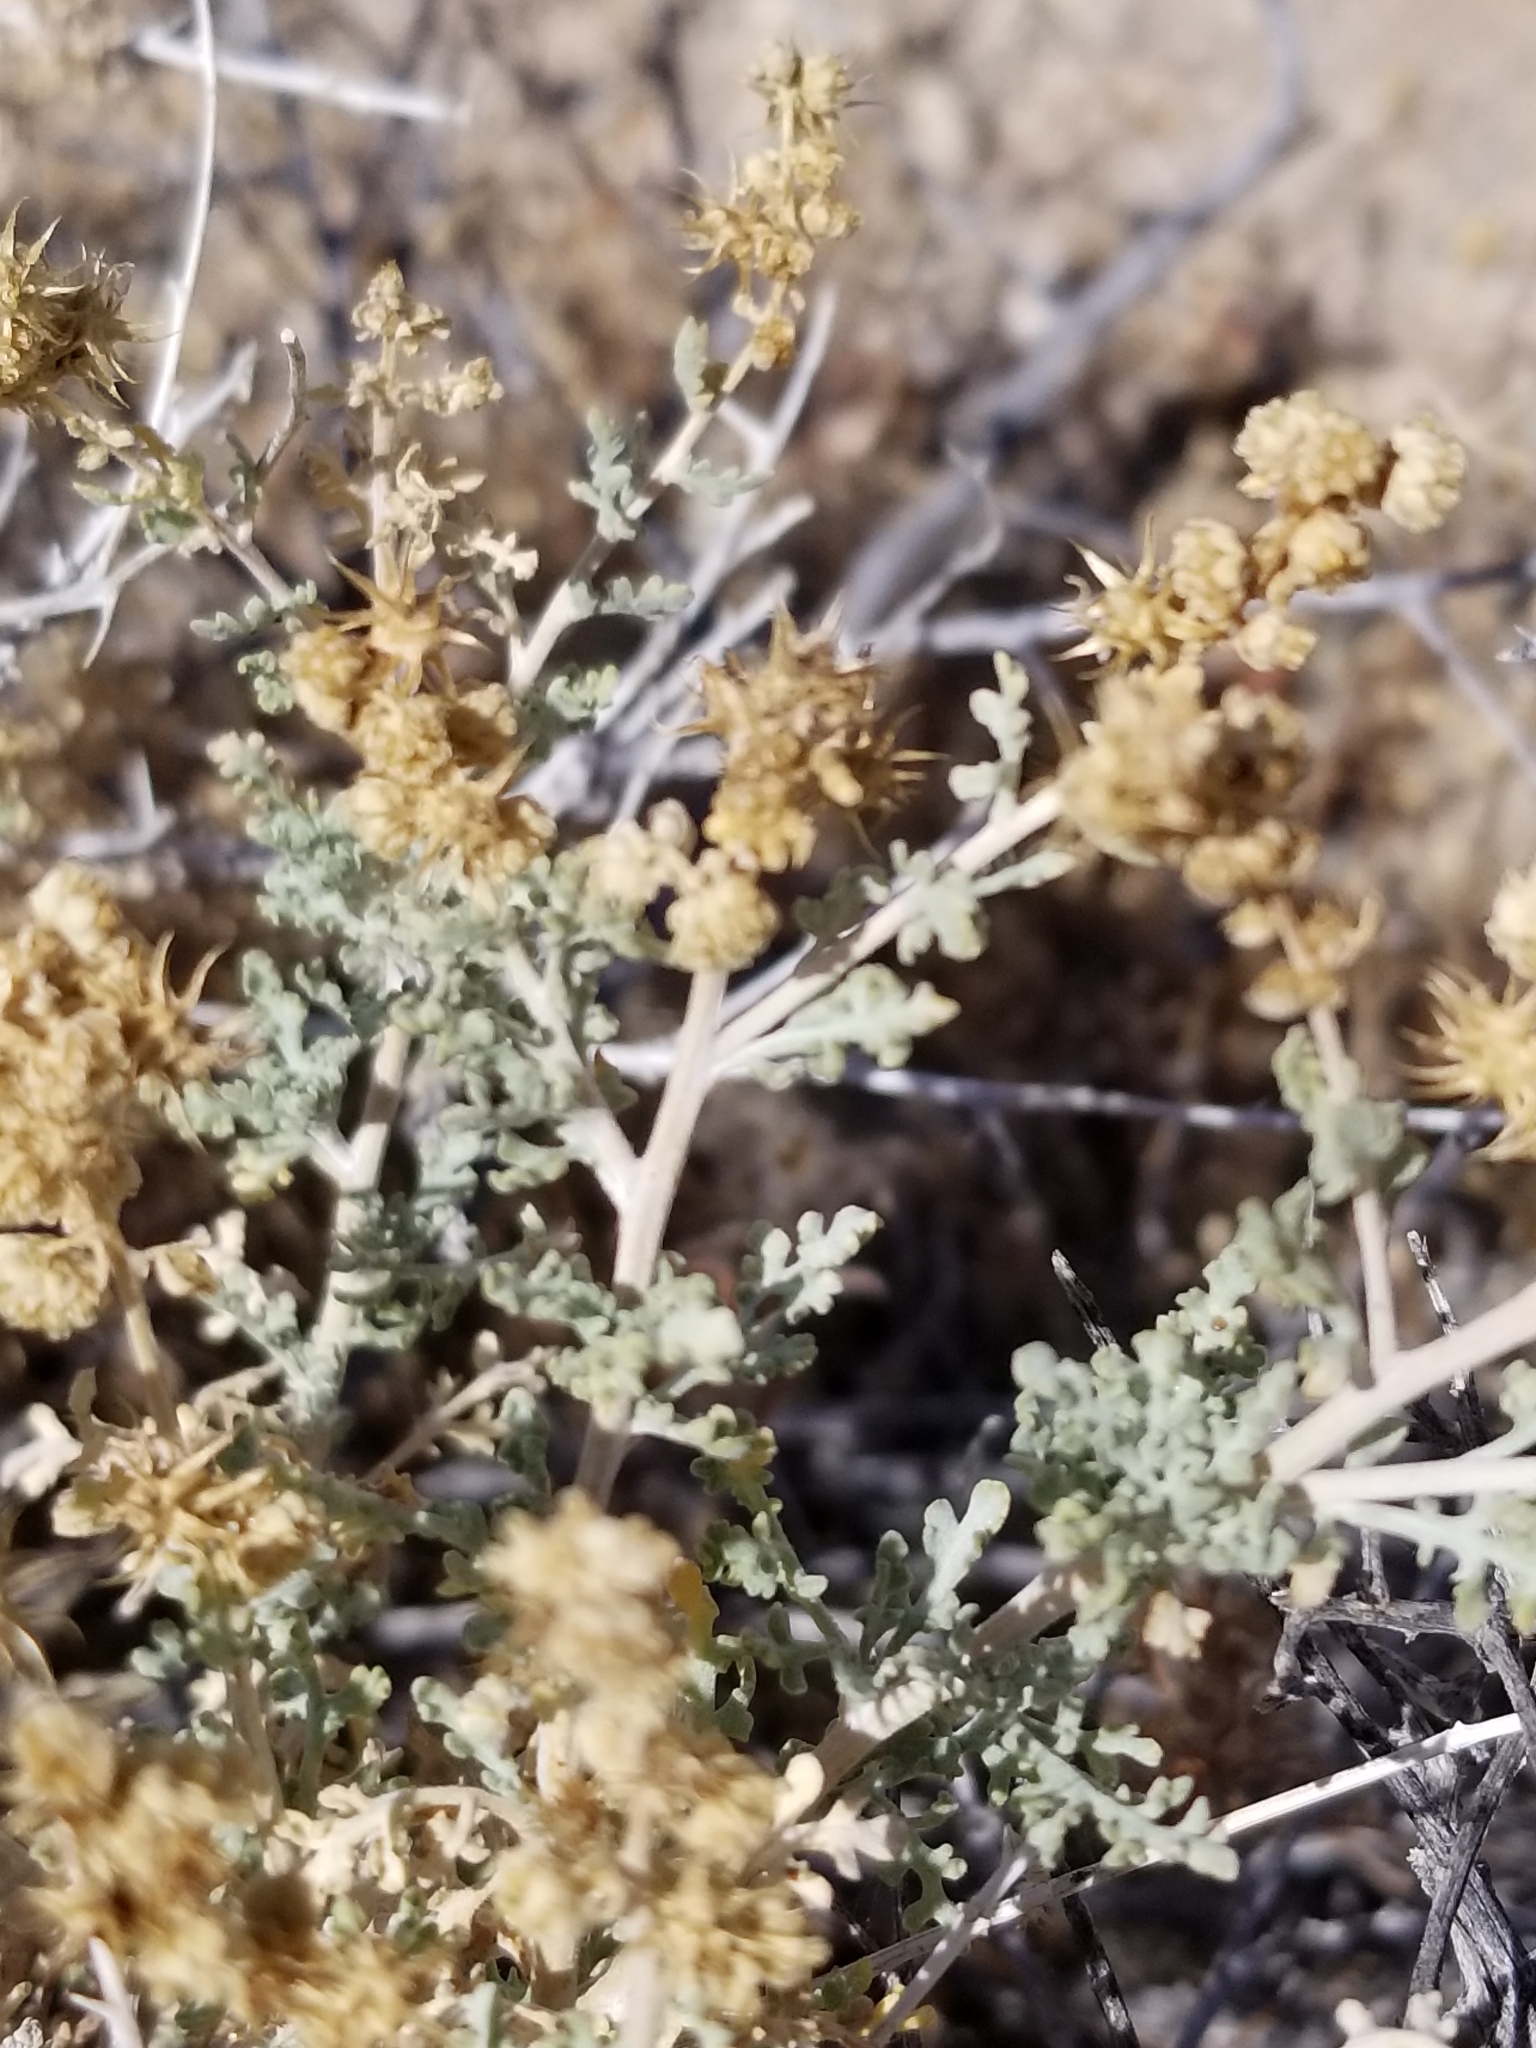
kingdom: Plantae
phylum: Tracheophyta
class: Magnoliopsida
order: Asterales
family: Asteraceae
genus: Ambrosia
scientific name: Ambrosia dumosa
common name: Bur-sage
